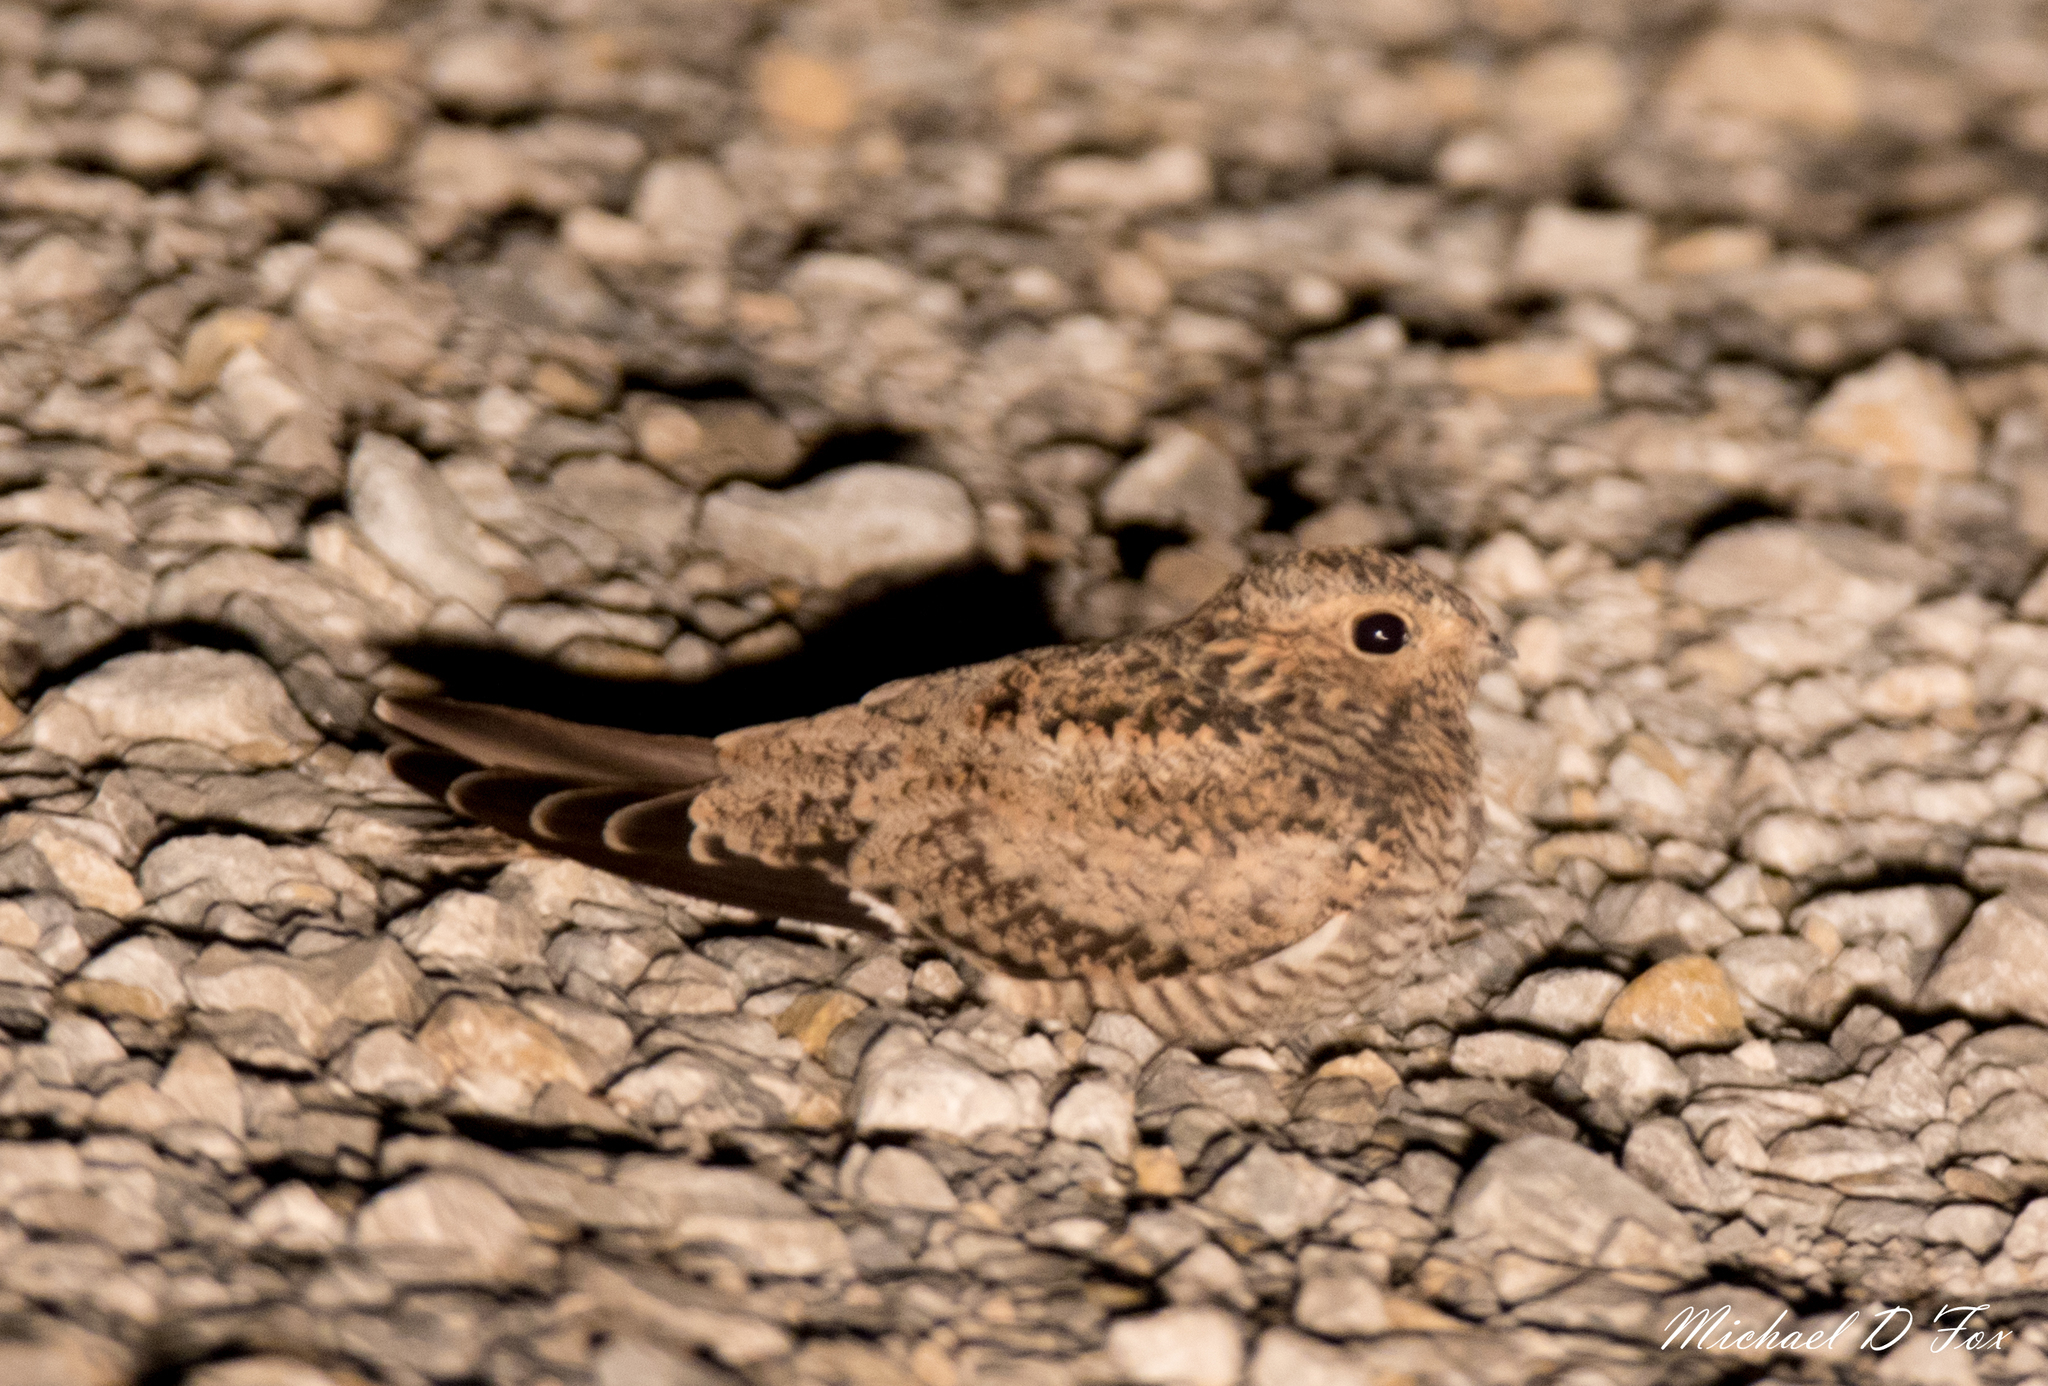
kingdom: Animalia
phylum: Chordata
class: Aves
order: Caprimulgiformes
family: Caprimulgidae
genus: Chordeiles
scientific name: Chordeiles minor
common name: Common nighthawk
